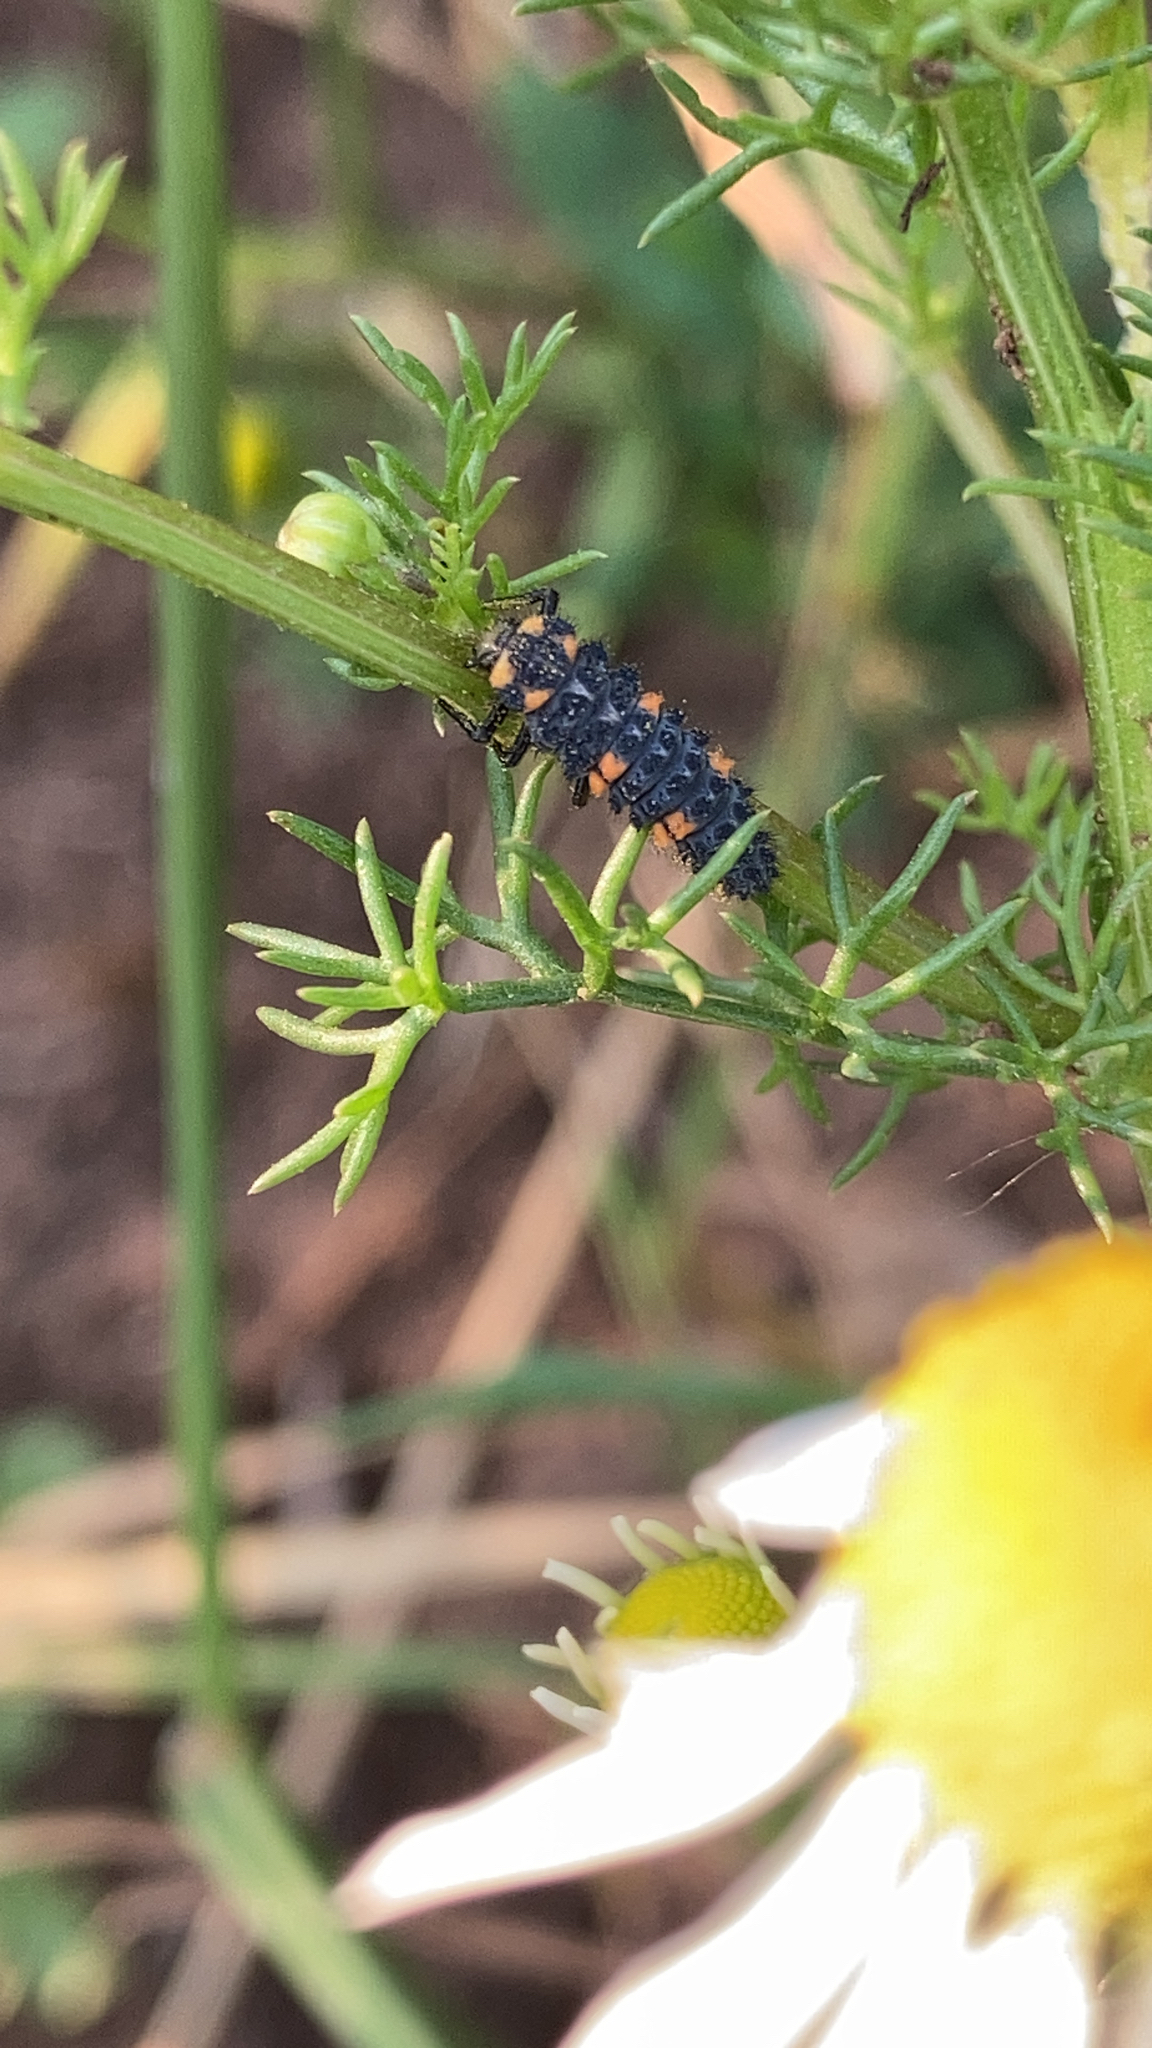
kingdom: Animalia
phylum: Arthropoda
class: Insecta
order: Coleoptera
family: Coccinellidae
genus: Coccinella
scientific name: Coccinella septempunctata
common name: Sevenspotted lady beetle
